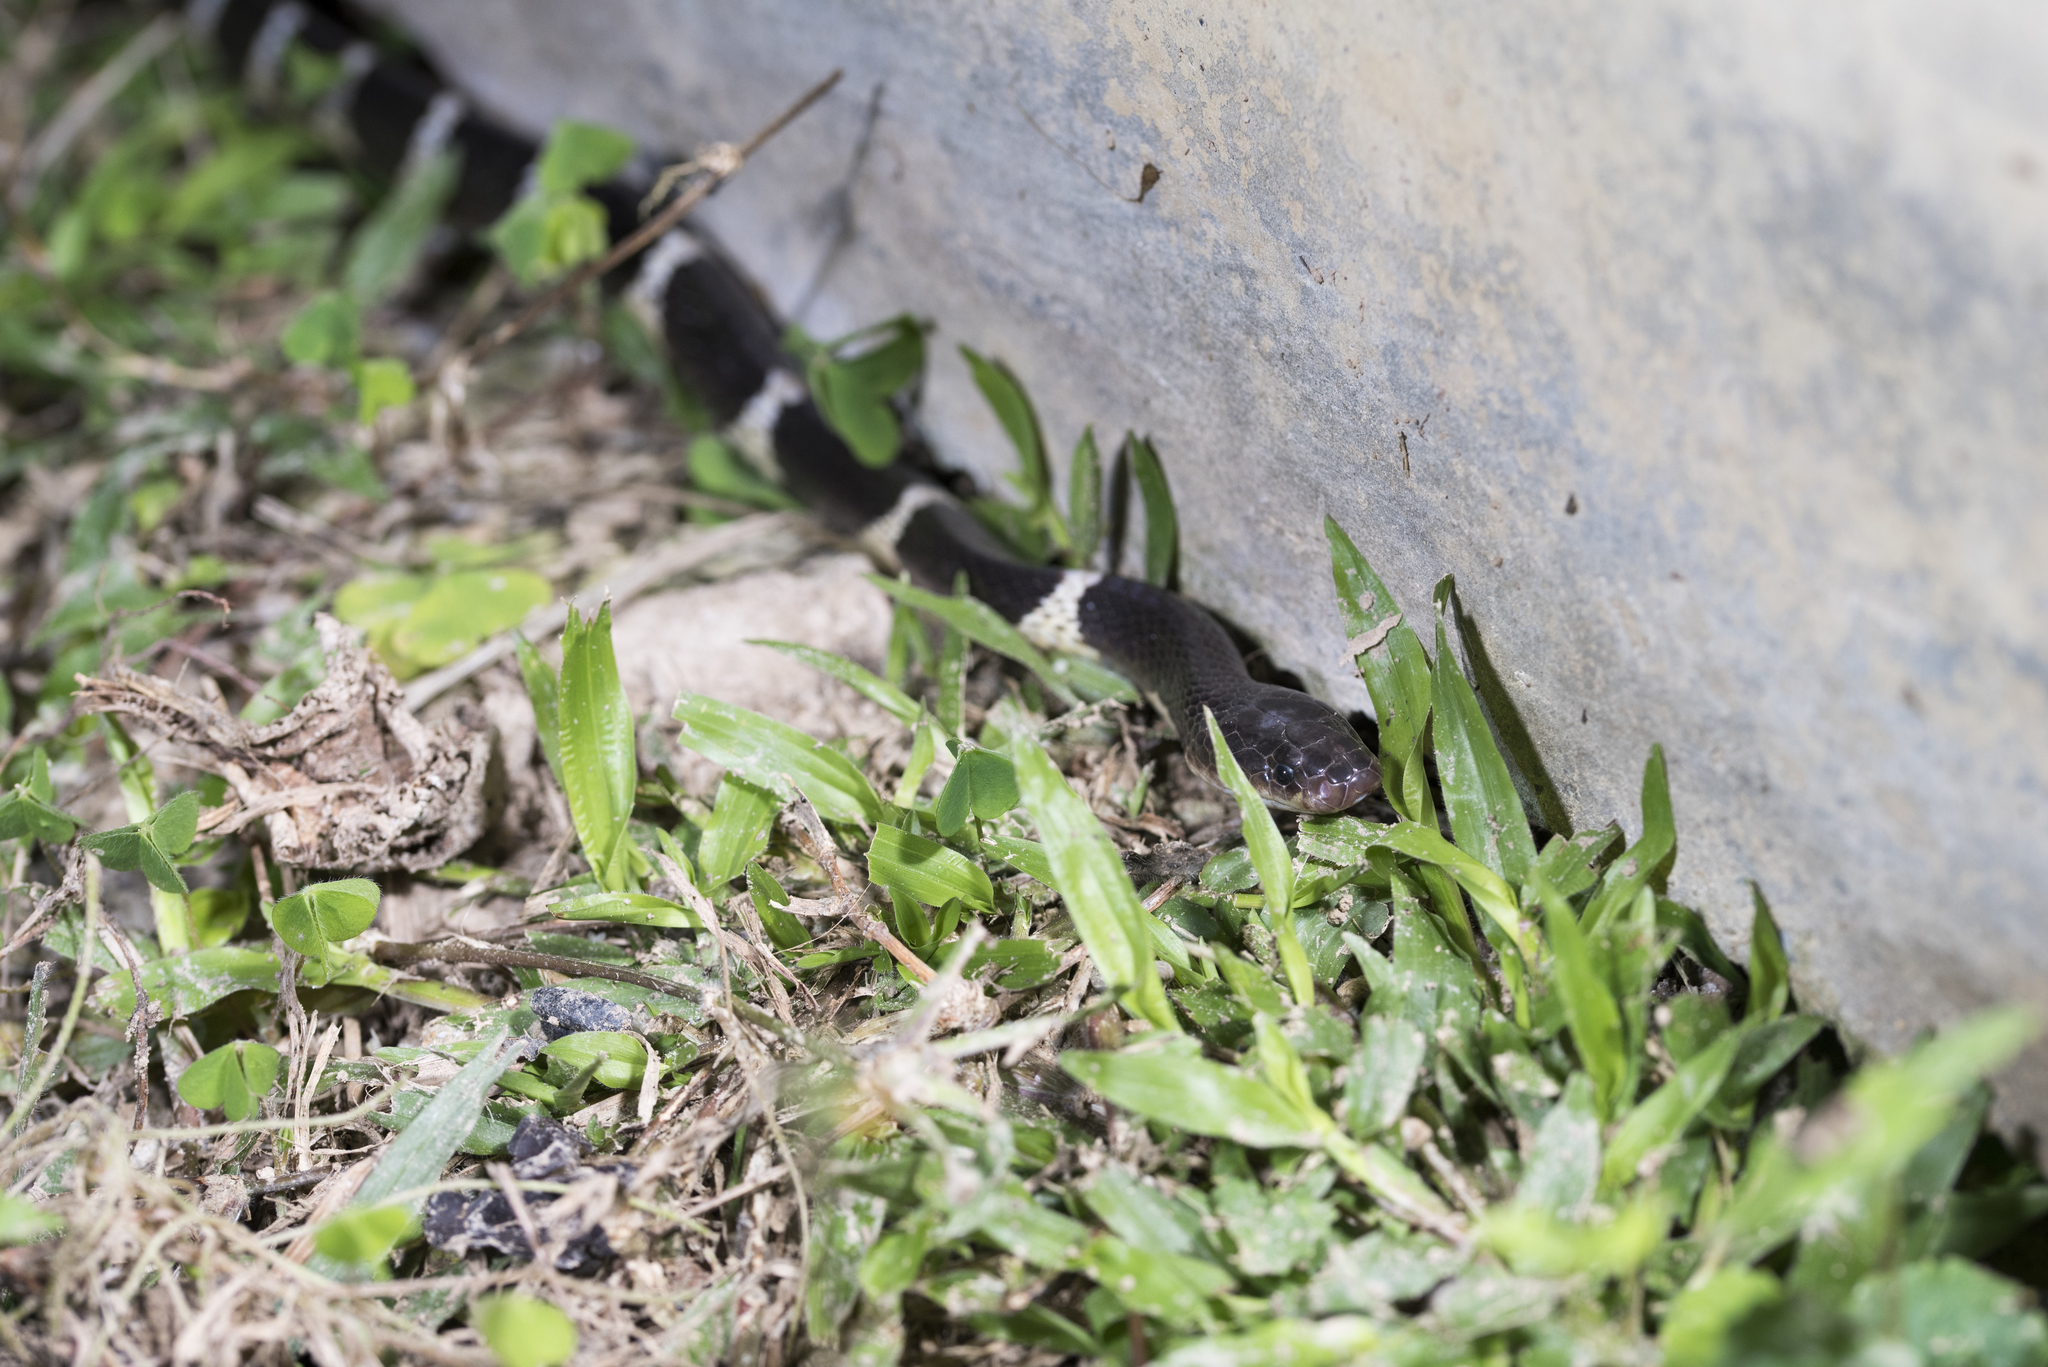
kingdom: Animalia
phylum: Chordata
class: Squamata
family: Elapidae
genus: Bungarus
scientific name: Bungarus multicinctus
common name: Many-banded krait
